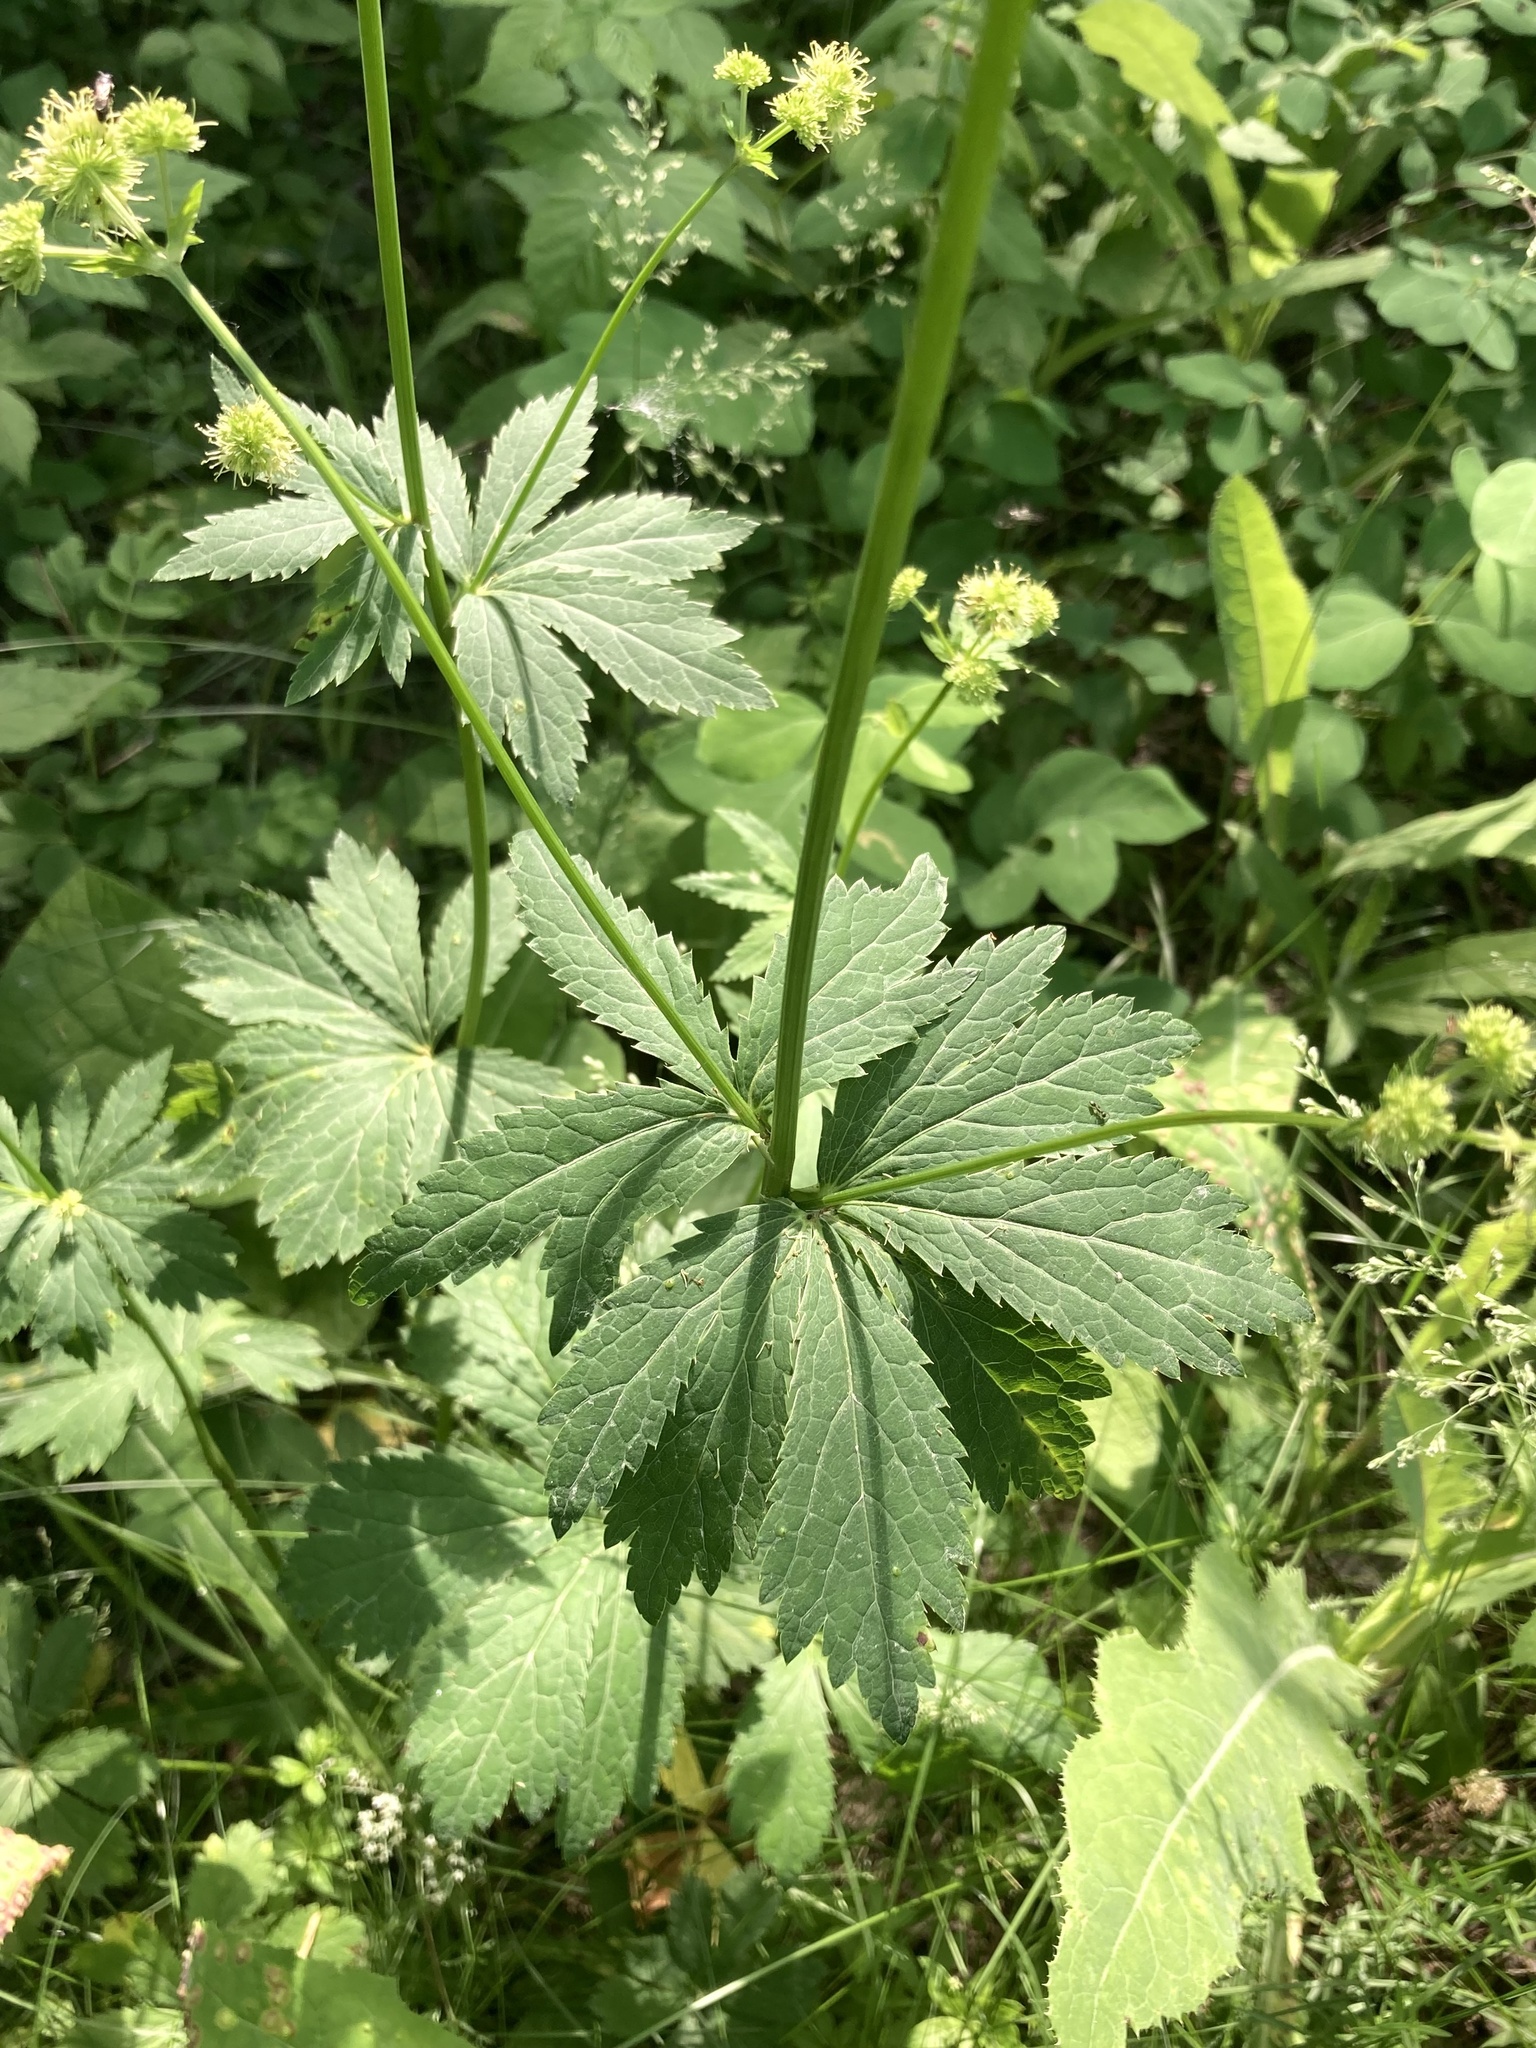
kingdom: Plantae
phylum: Tracheophyta
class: Magnoliopsida
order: Apiales
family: Apiaceae
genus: Sanicula
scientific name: Sanicula marilandica
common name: Black snakeroot
